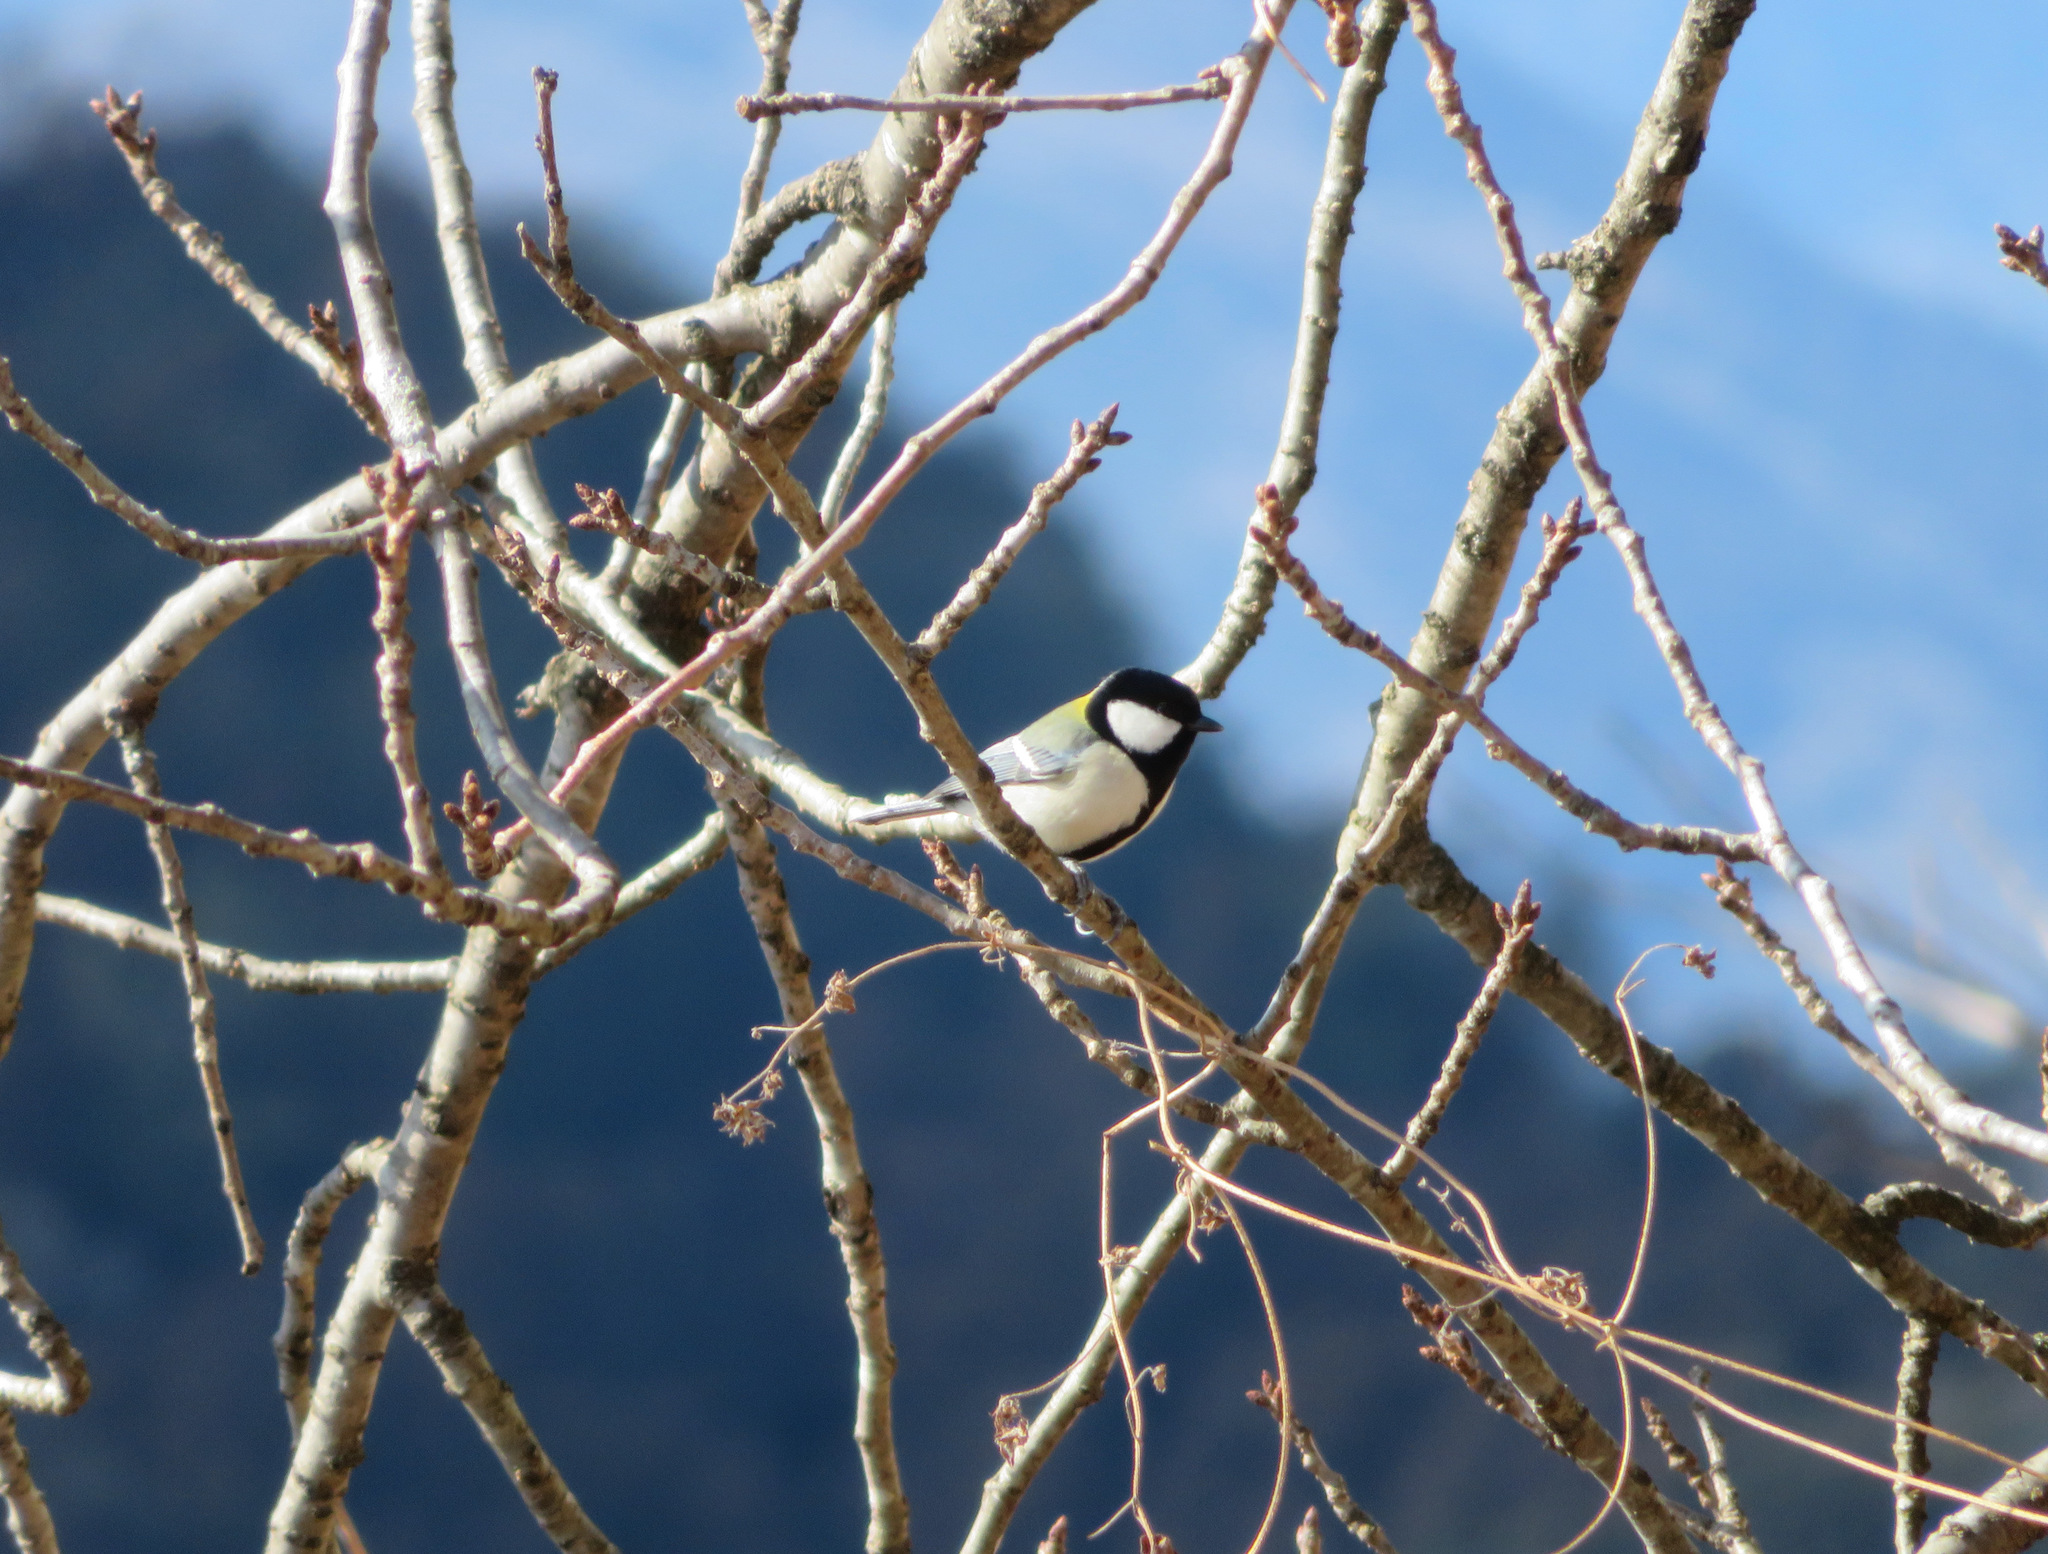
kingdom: Animalia
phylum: Chordata
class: Aves
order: Passeriformes
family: Paridae
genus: Parus
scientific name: Parus minor
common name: Japanese tit
